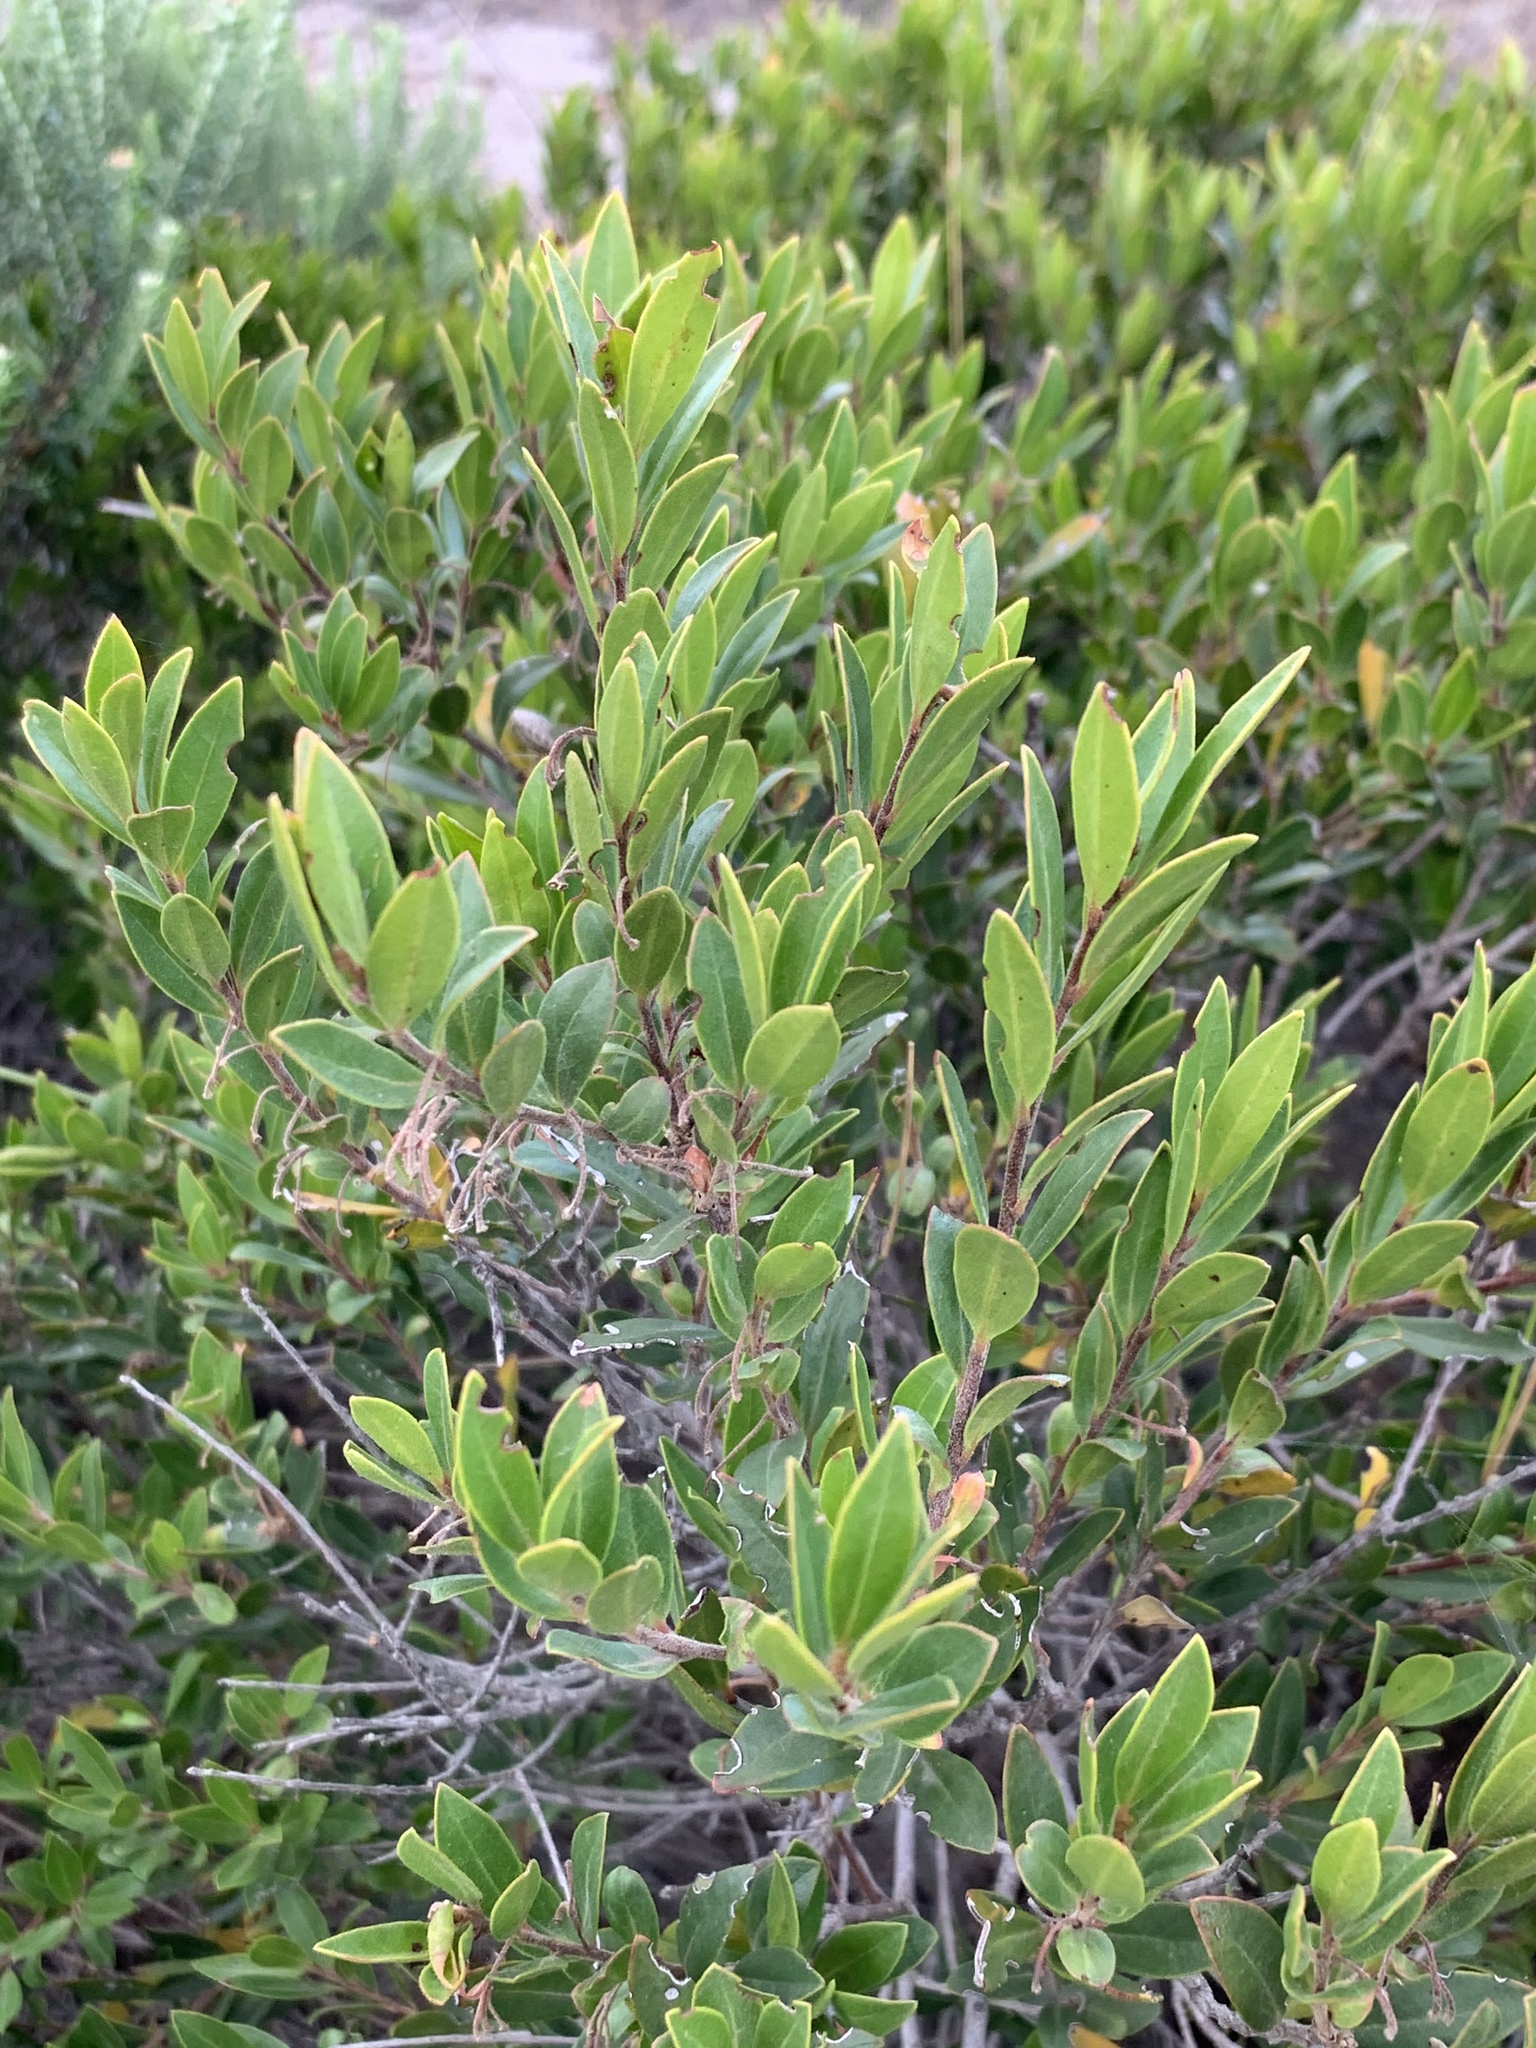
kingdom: Plantae
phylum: Tracheophyta
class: Magnoliopsida
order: Ericales
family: Ebenaceae
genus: Diospyros
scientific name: Diospyros glabra
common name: Fynbos star apple
